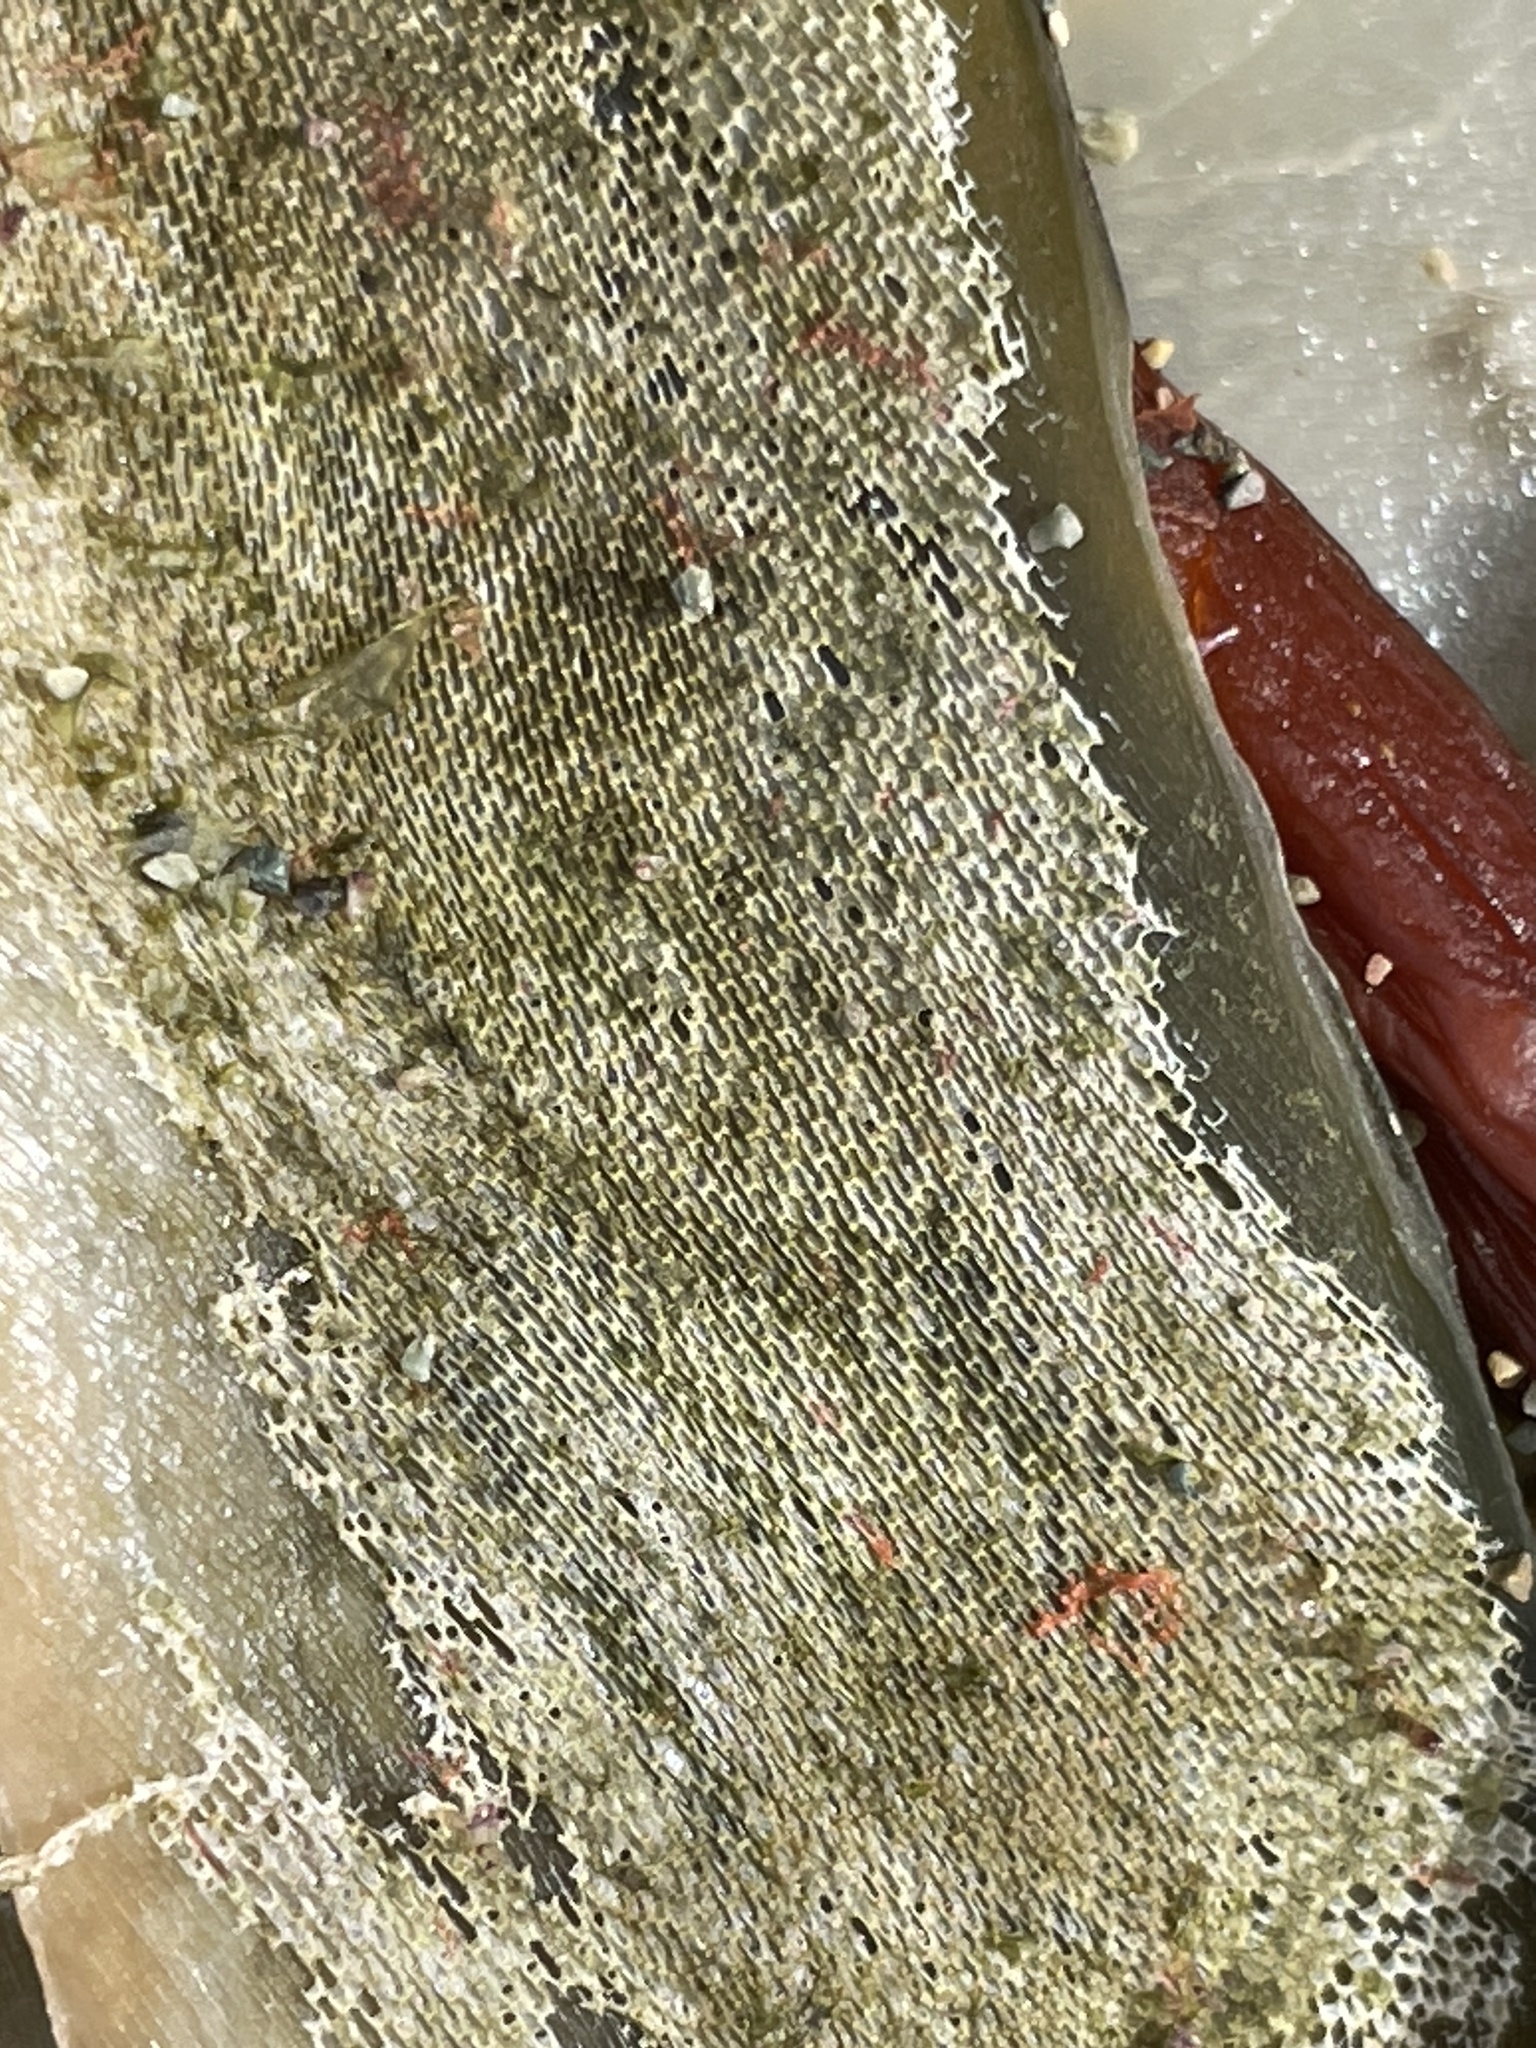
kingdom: Animalia
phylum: Bryozoa
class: Gymnolaemata
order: Cheilostomatida
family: Membraniporidae
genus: Membranipora
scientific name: Membranipora membranacea
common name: Sea mat
